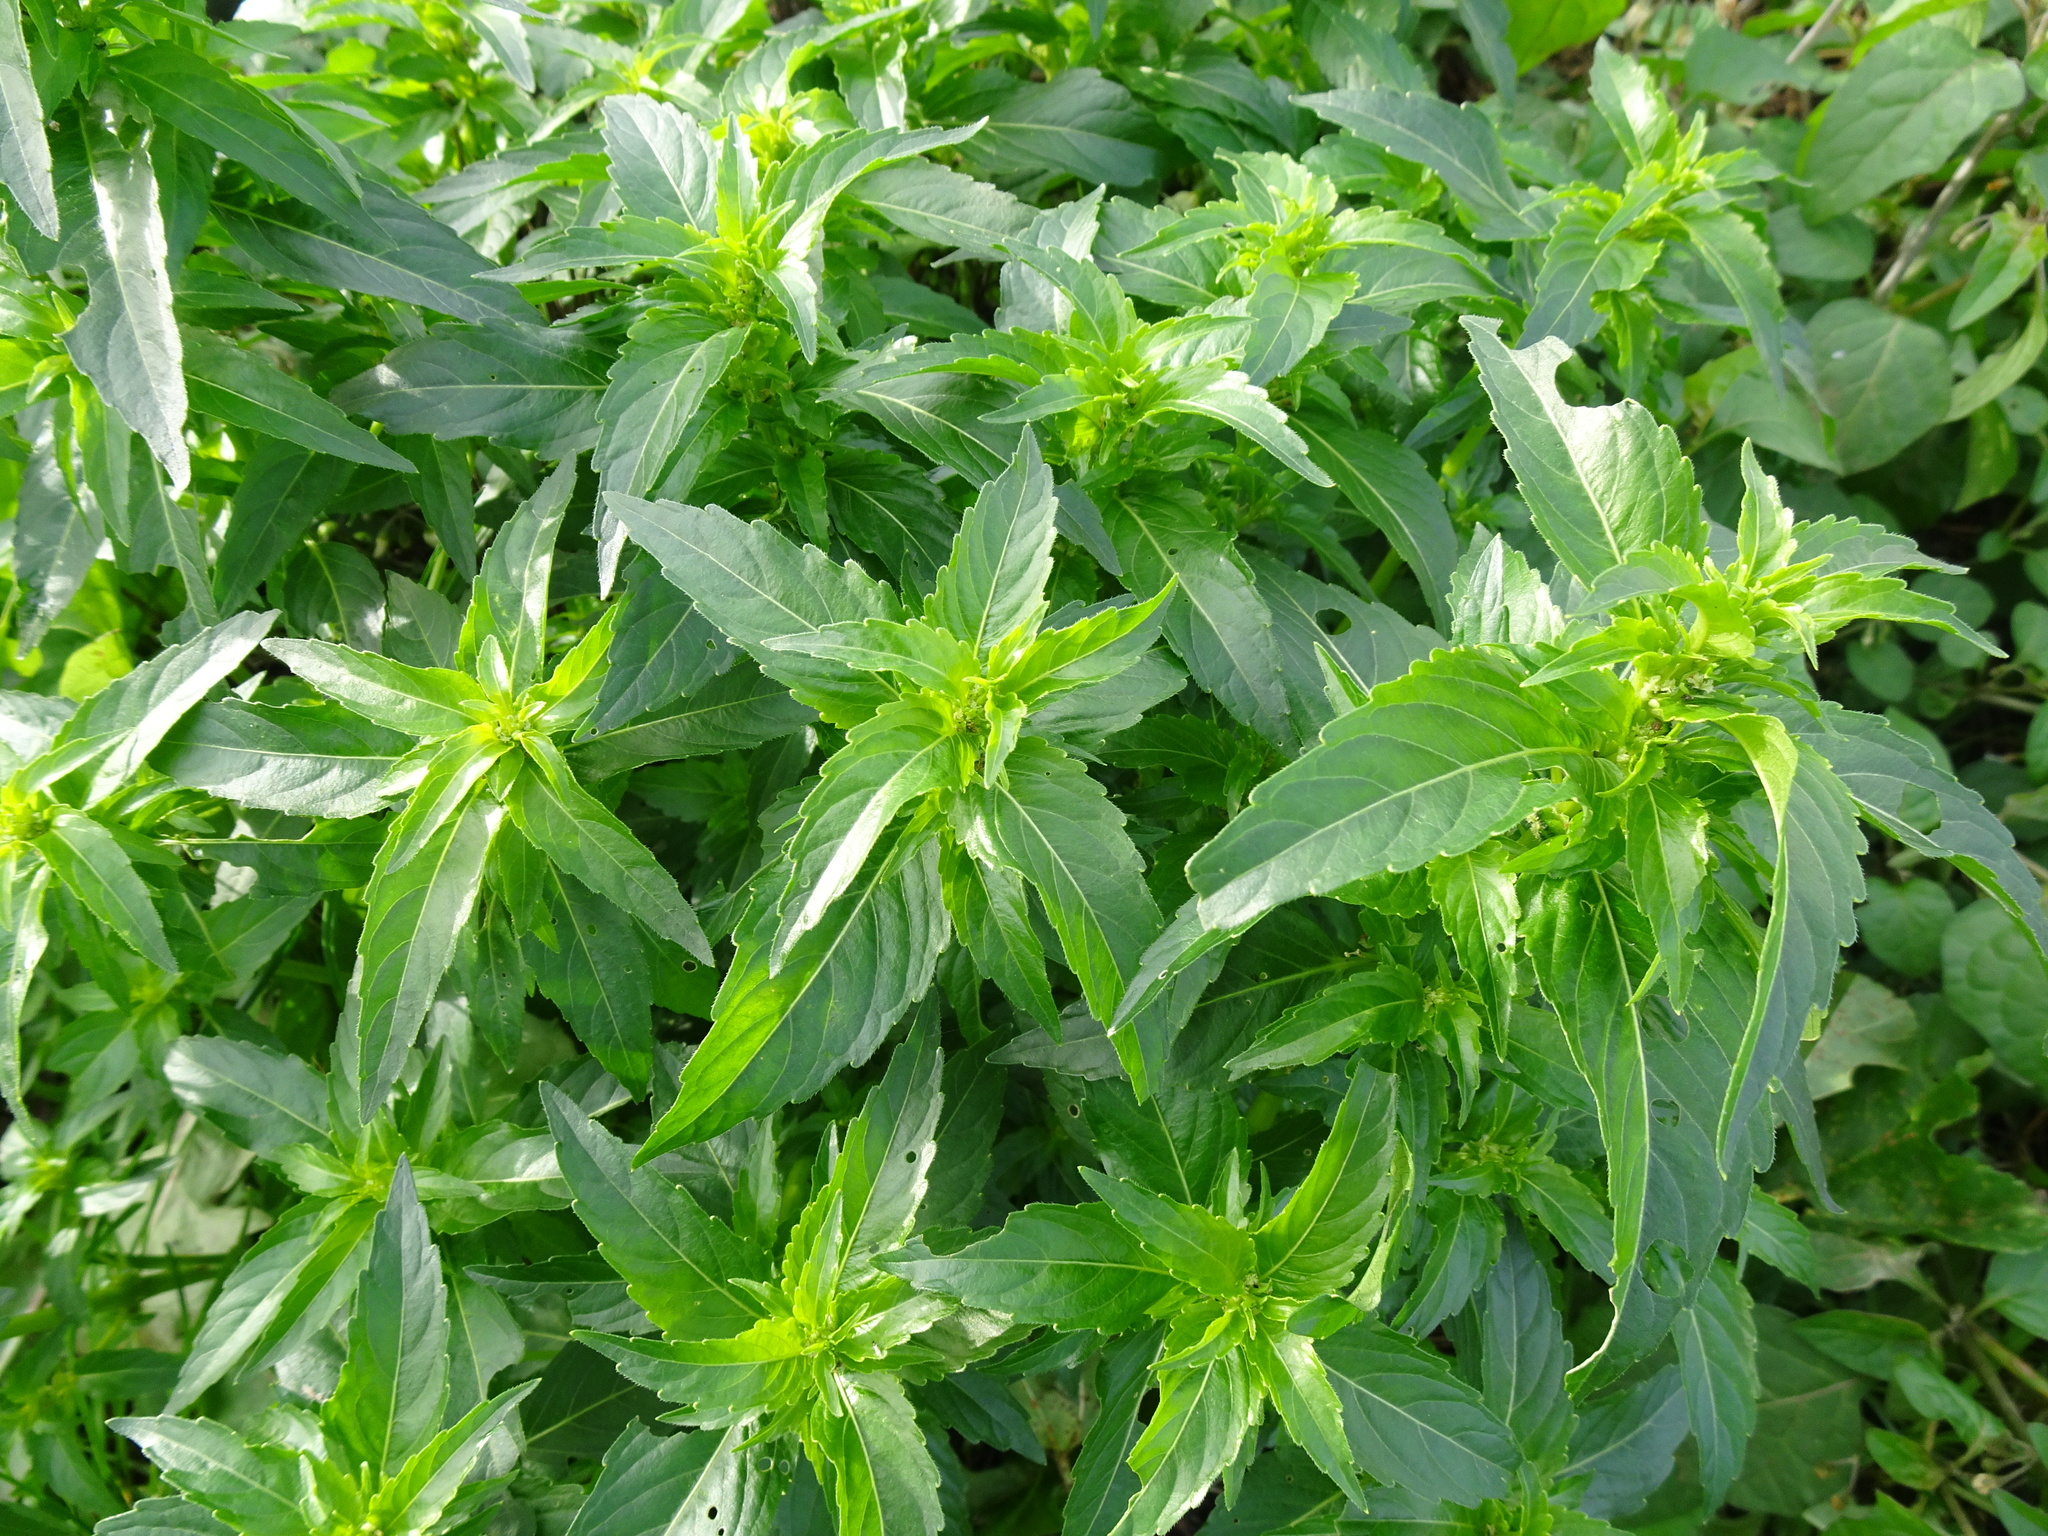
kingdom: Plantae
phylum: Tracheophyta
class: Magnoliopsida
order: Malpighiales
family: Euphorbiaceae
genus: Mercurialis
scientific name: Mercurialis annua
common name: Annual mercury
